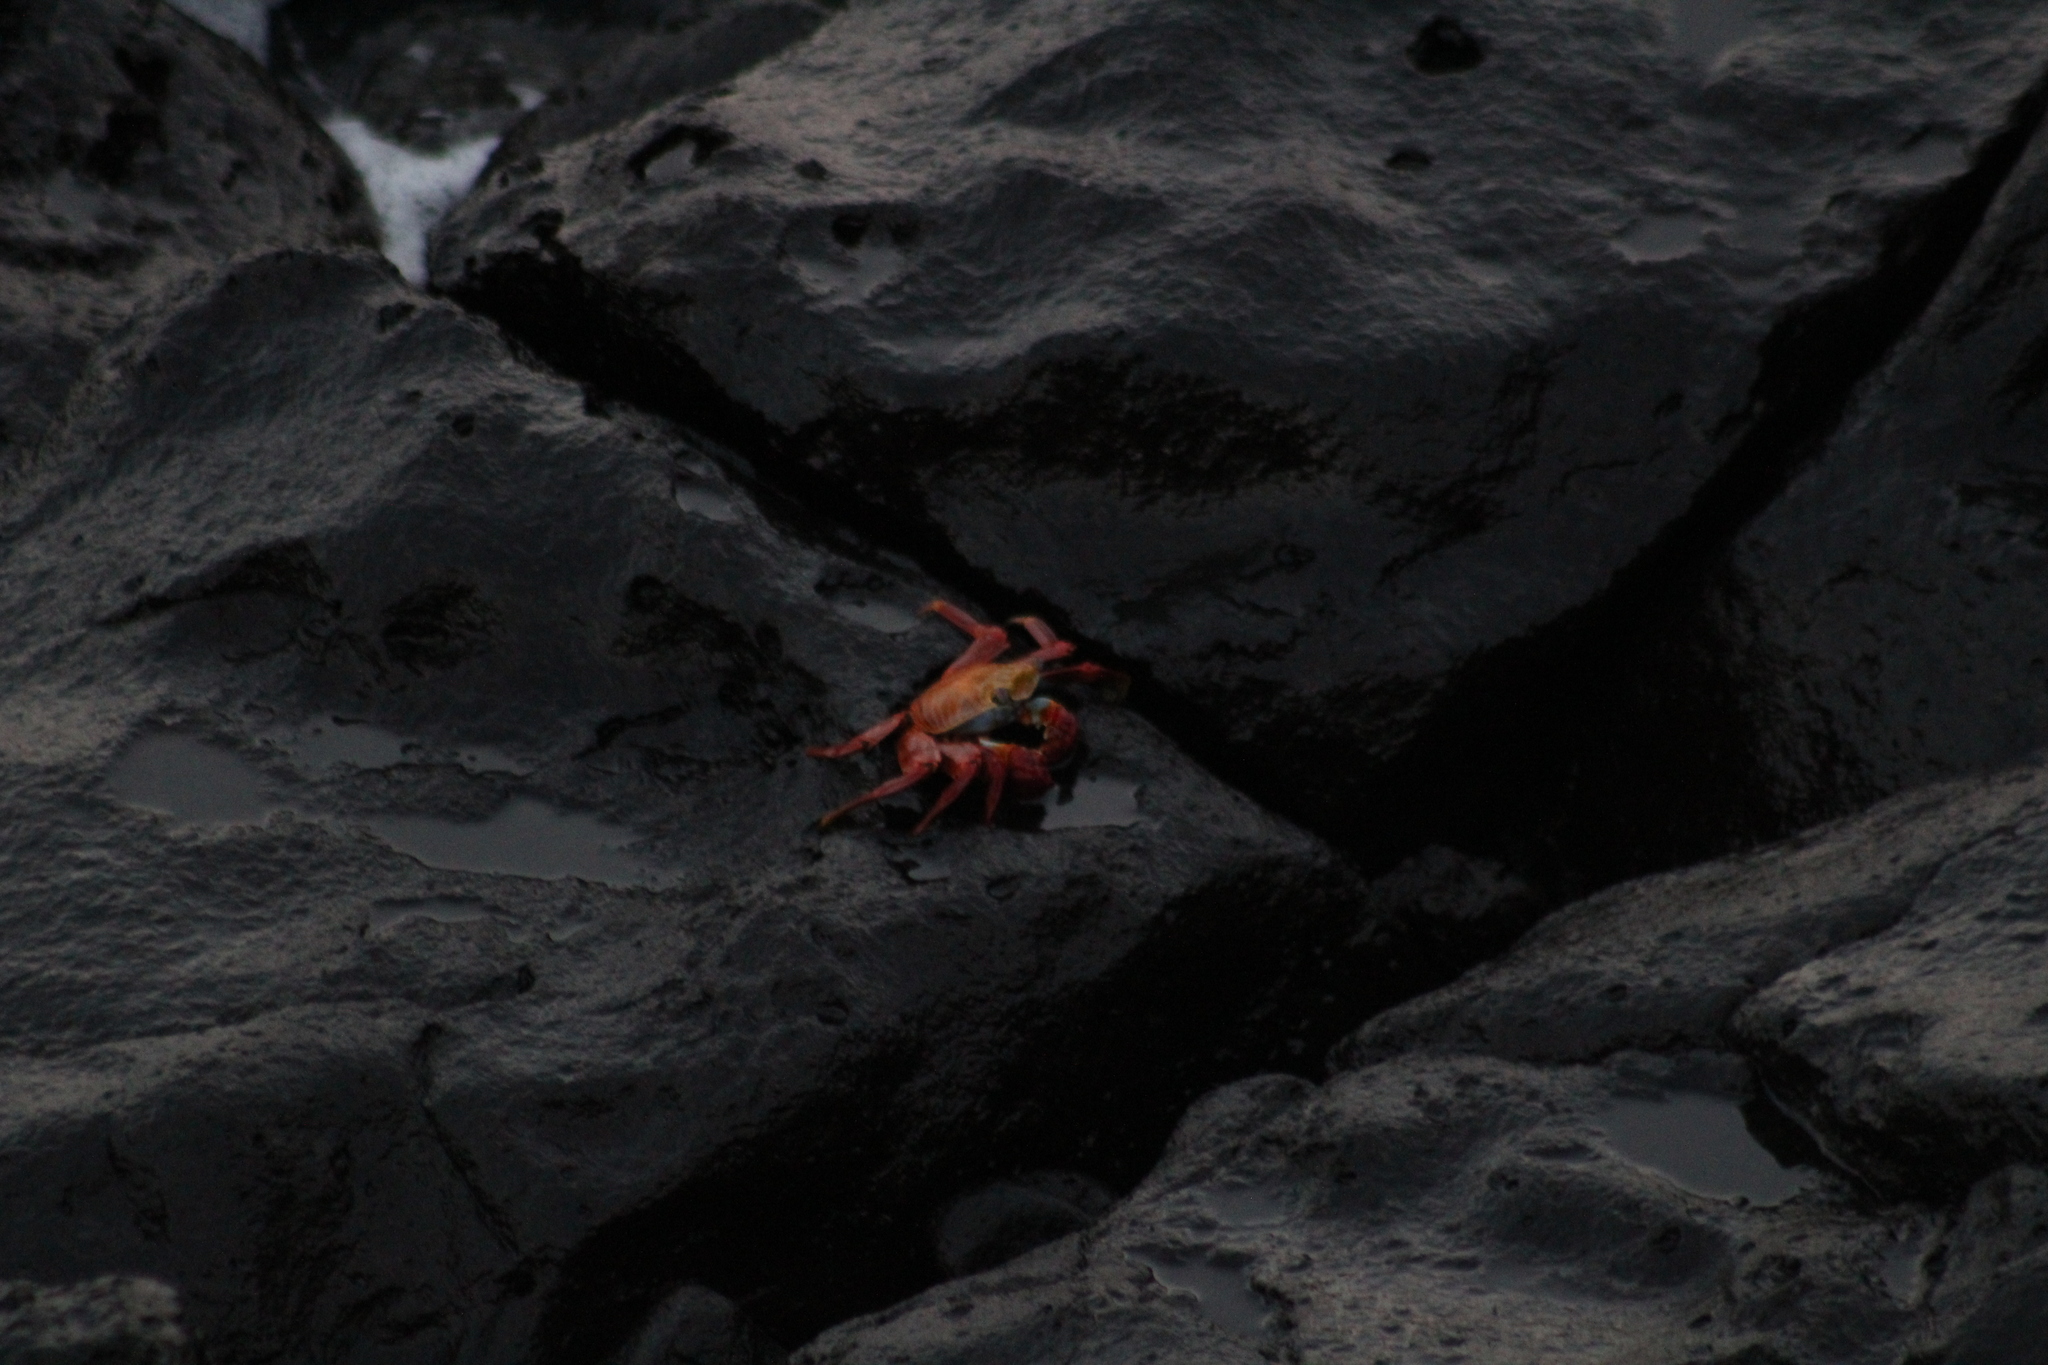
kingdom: Animalia
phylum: Arthropoda
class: Malacostraca
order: Decapoda
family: Grapsidae
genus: Grapsus
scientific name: Grapsus grapsus
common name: Sally lightfoot
